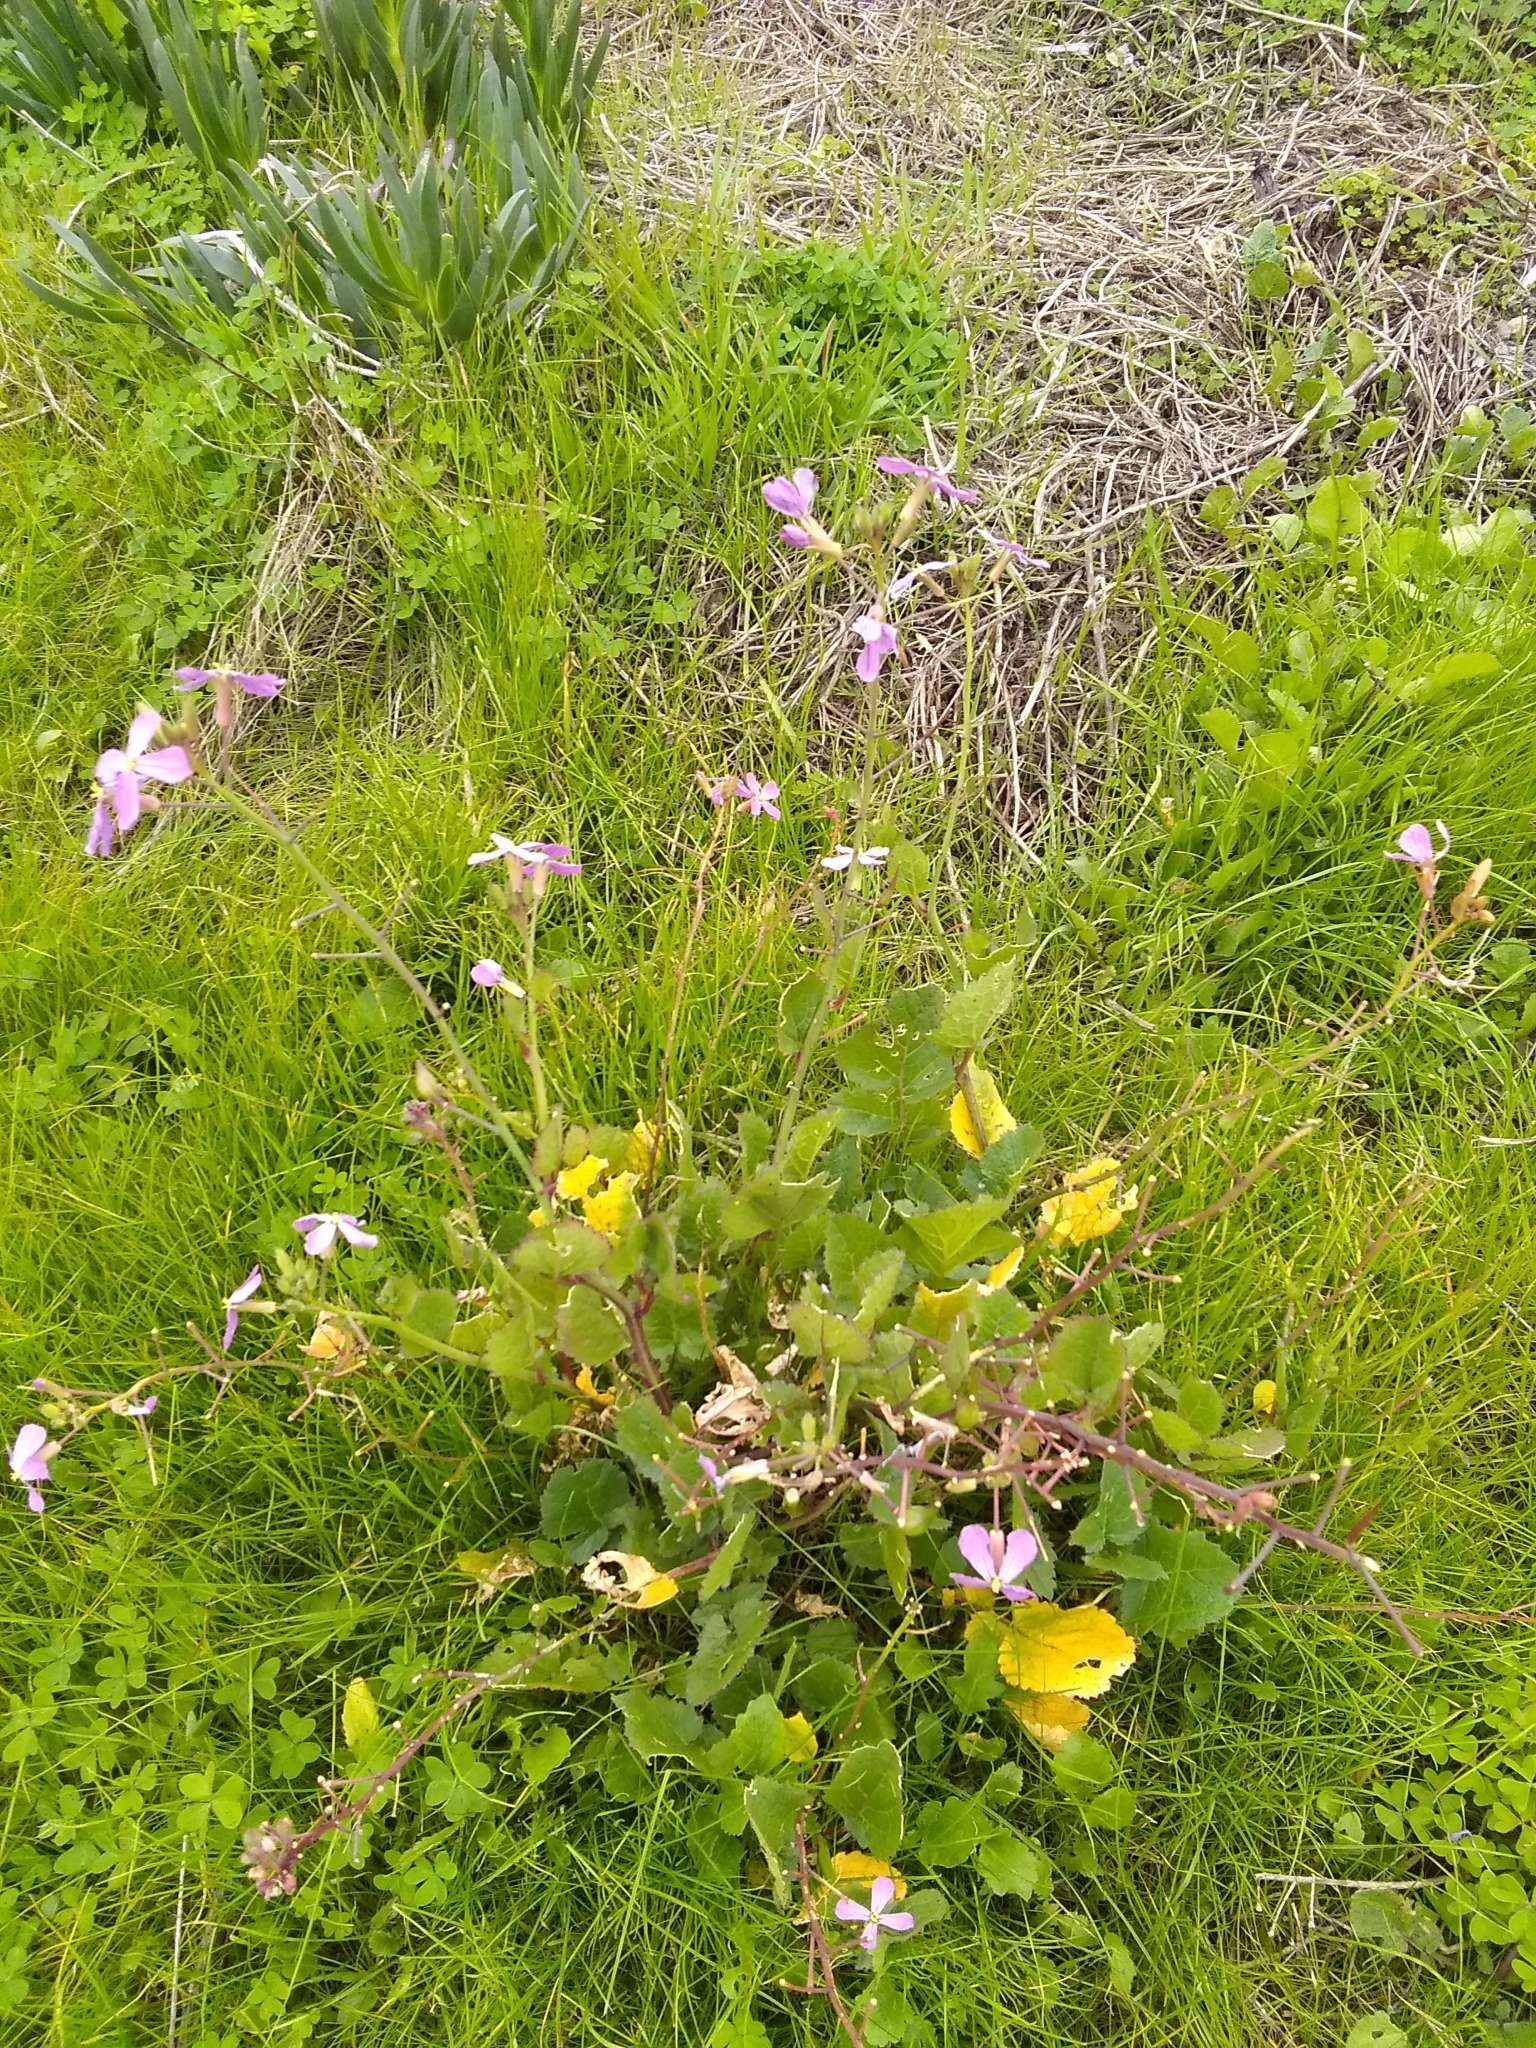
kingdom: Plantae
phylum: Tracheophyta
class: Magnoliopsida
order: Brassicales
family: Brassicaceae
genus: Raphanus
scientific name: Raphanus sativus
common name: Cultivated radish
